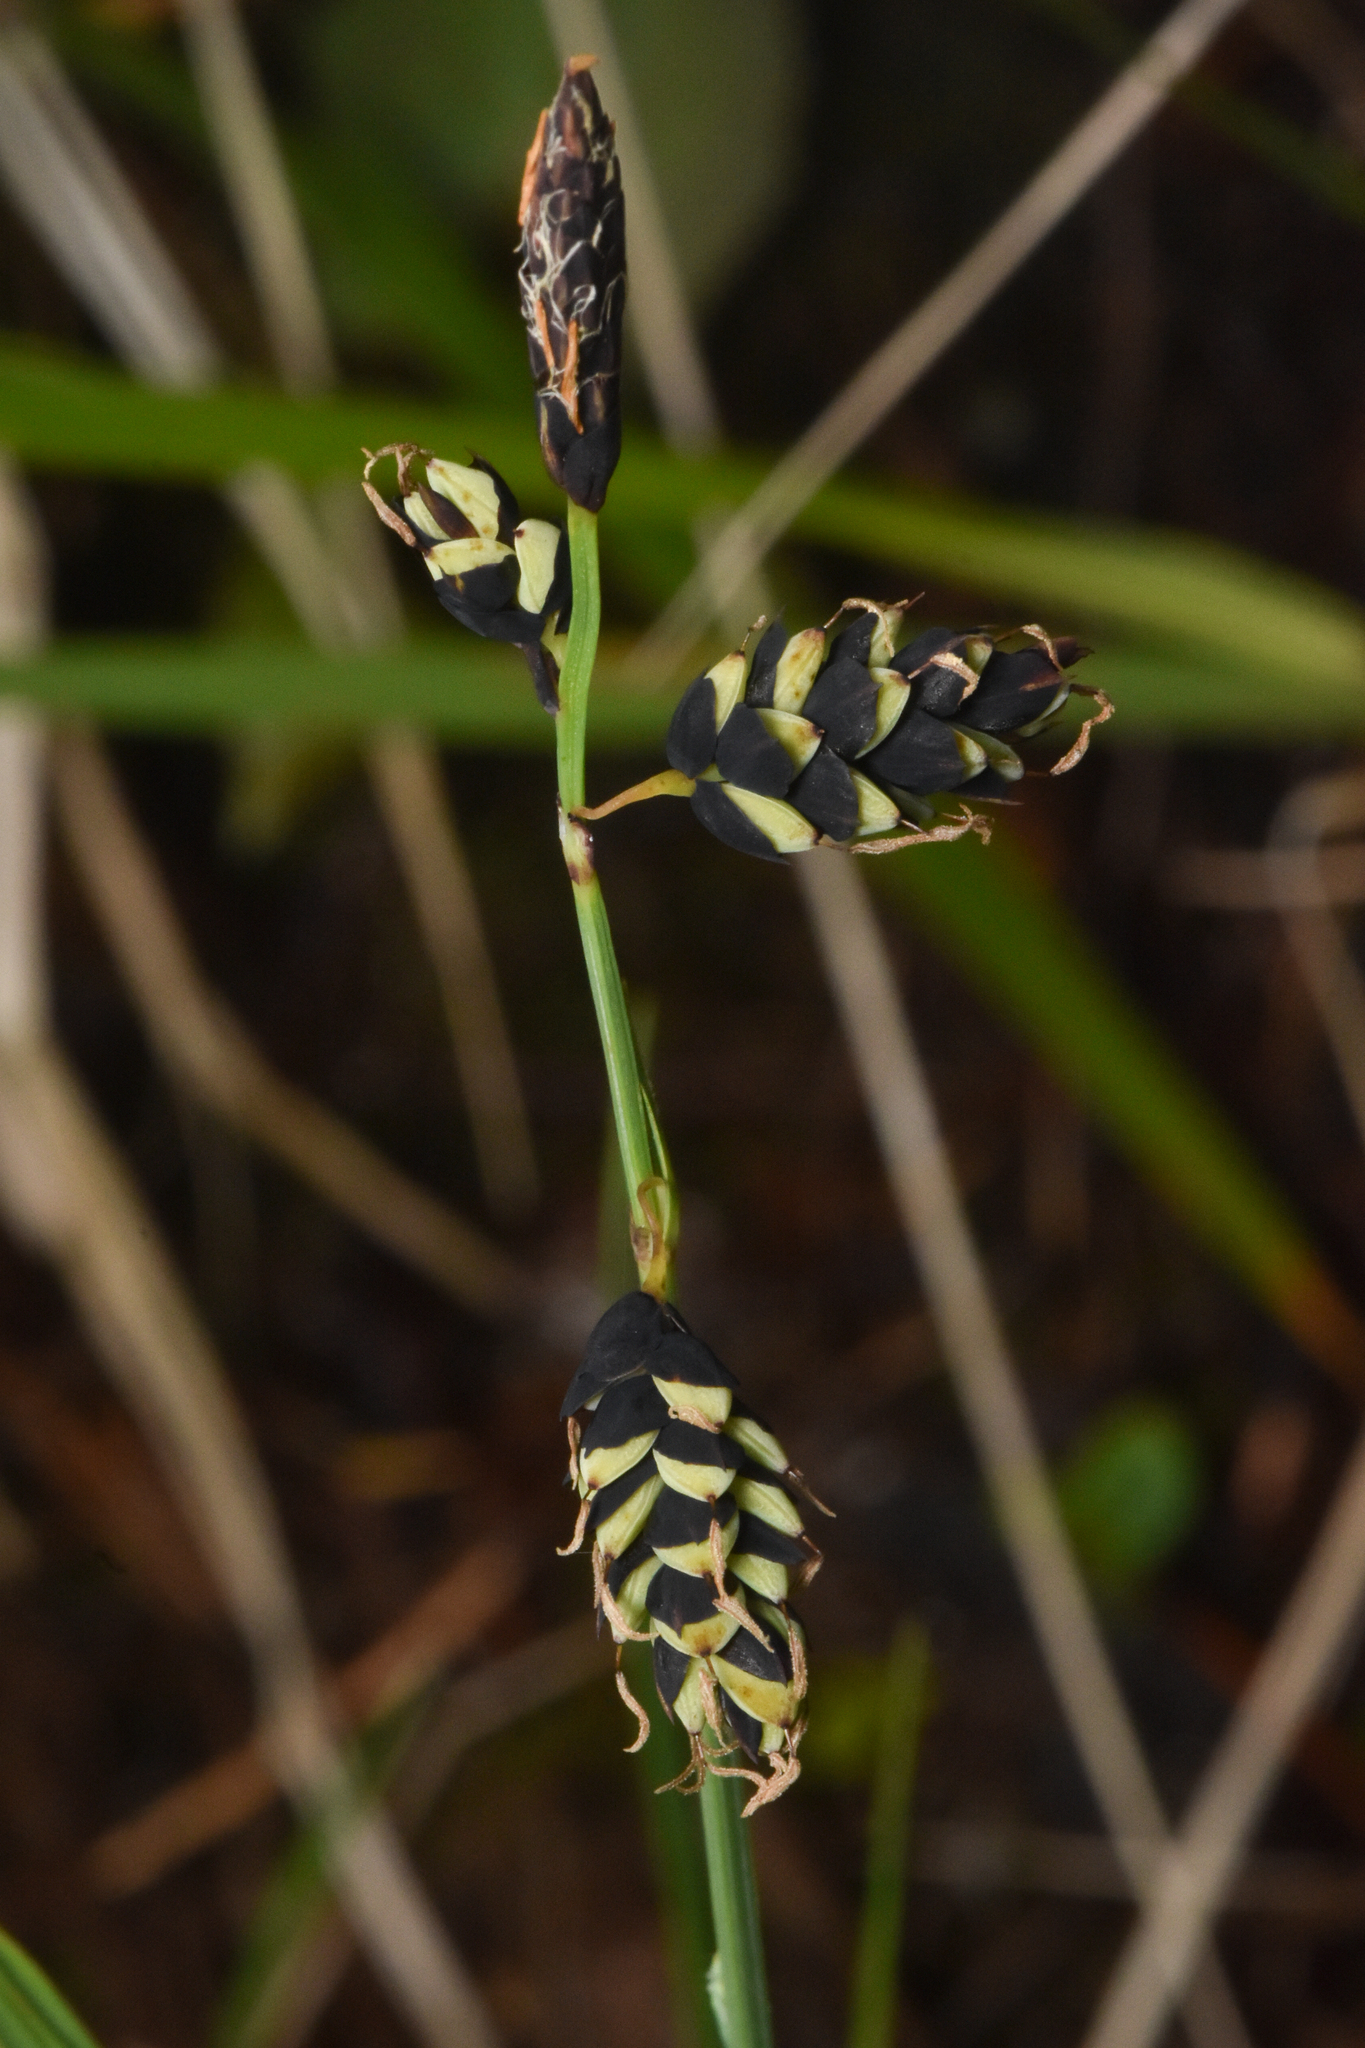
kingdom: Plantae
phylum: Tracheophyta
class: Liliopsida
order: Poales
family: Cyperaceae
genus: Carex
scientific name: Carex pluriflora
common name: Manyflower sedge
